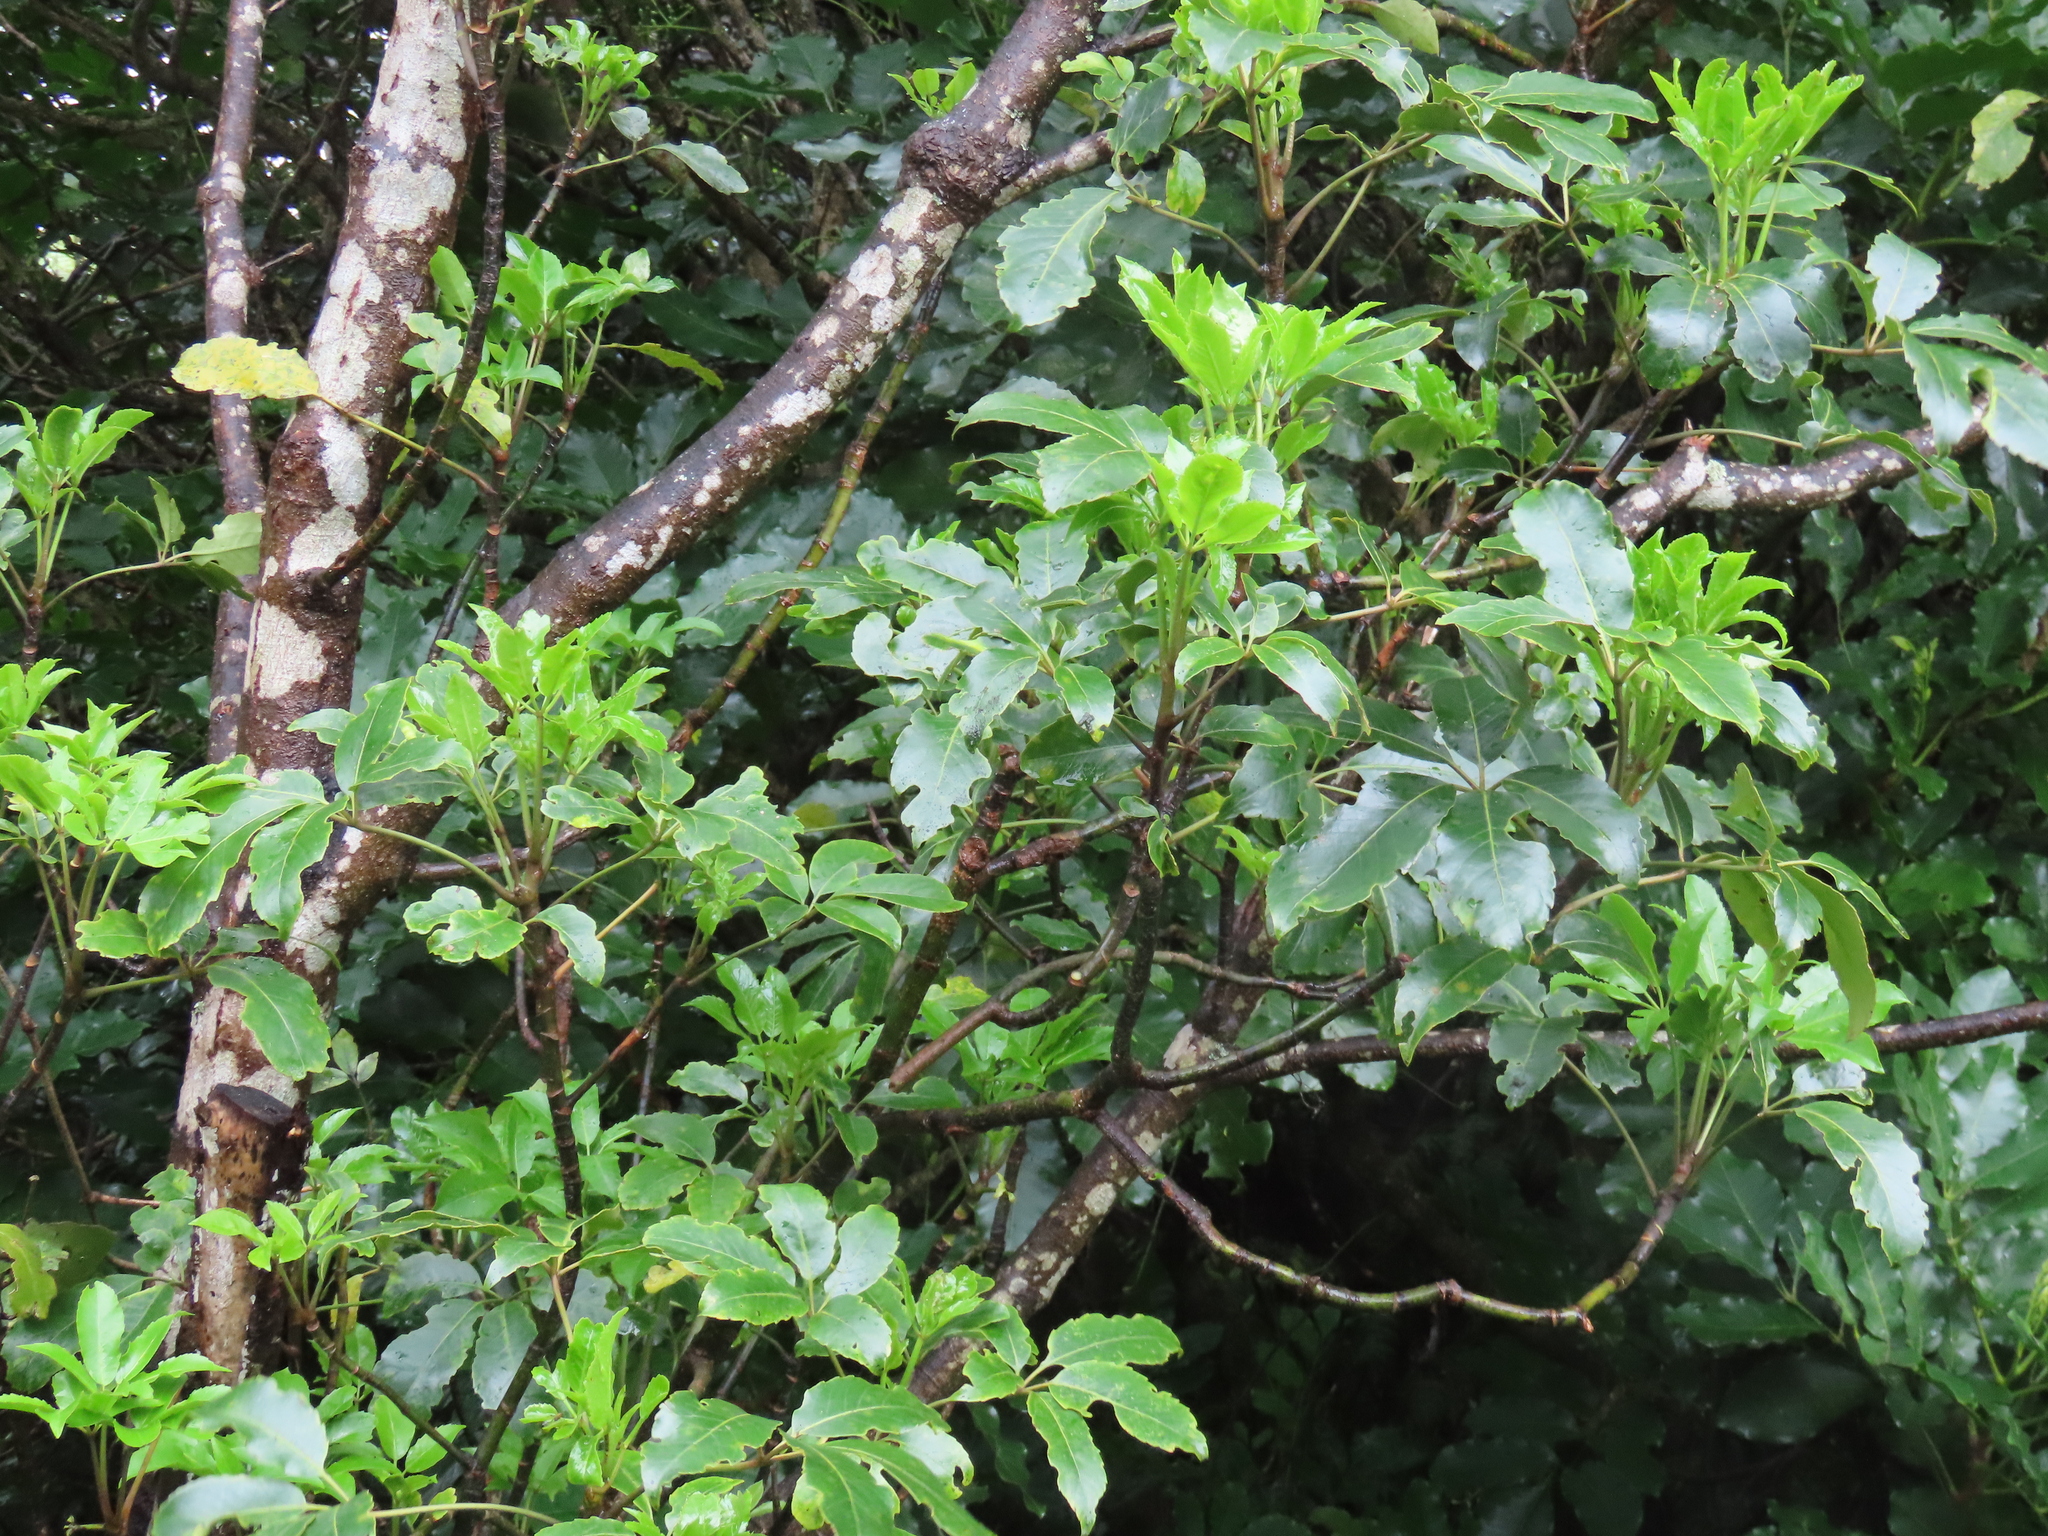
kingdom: Plantae
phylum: Tracheophyta
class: Magnoliopsida
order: Apiales
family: Araliaceae
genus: Neopanax
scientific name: Neopanax arboreus
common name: Five-fingers
